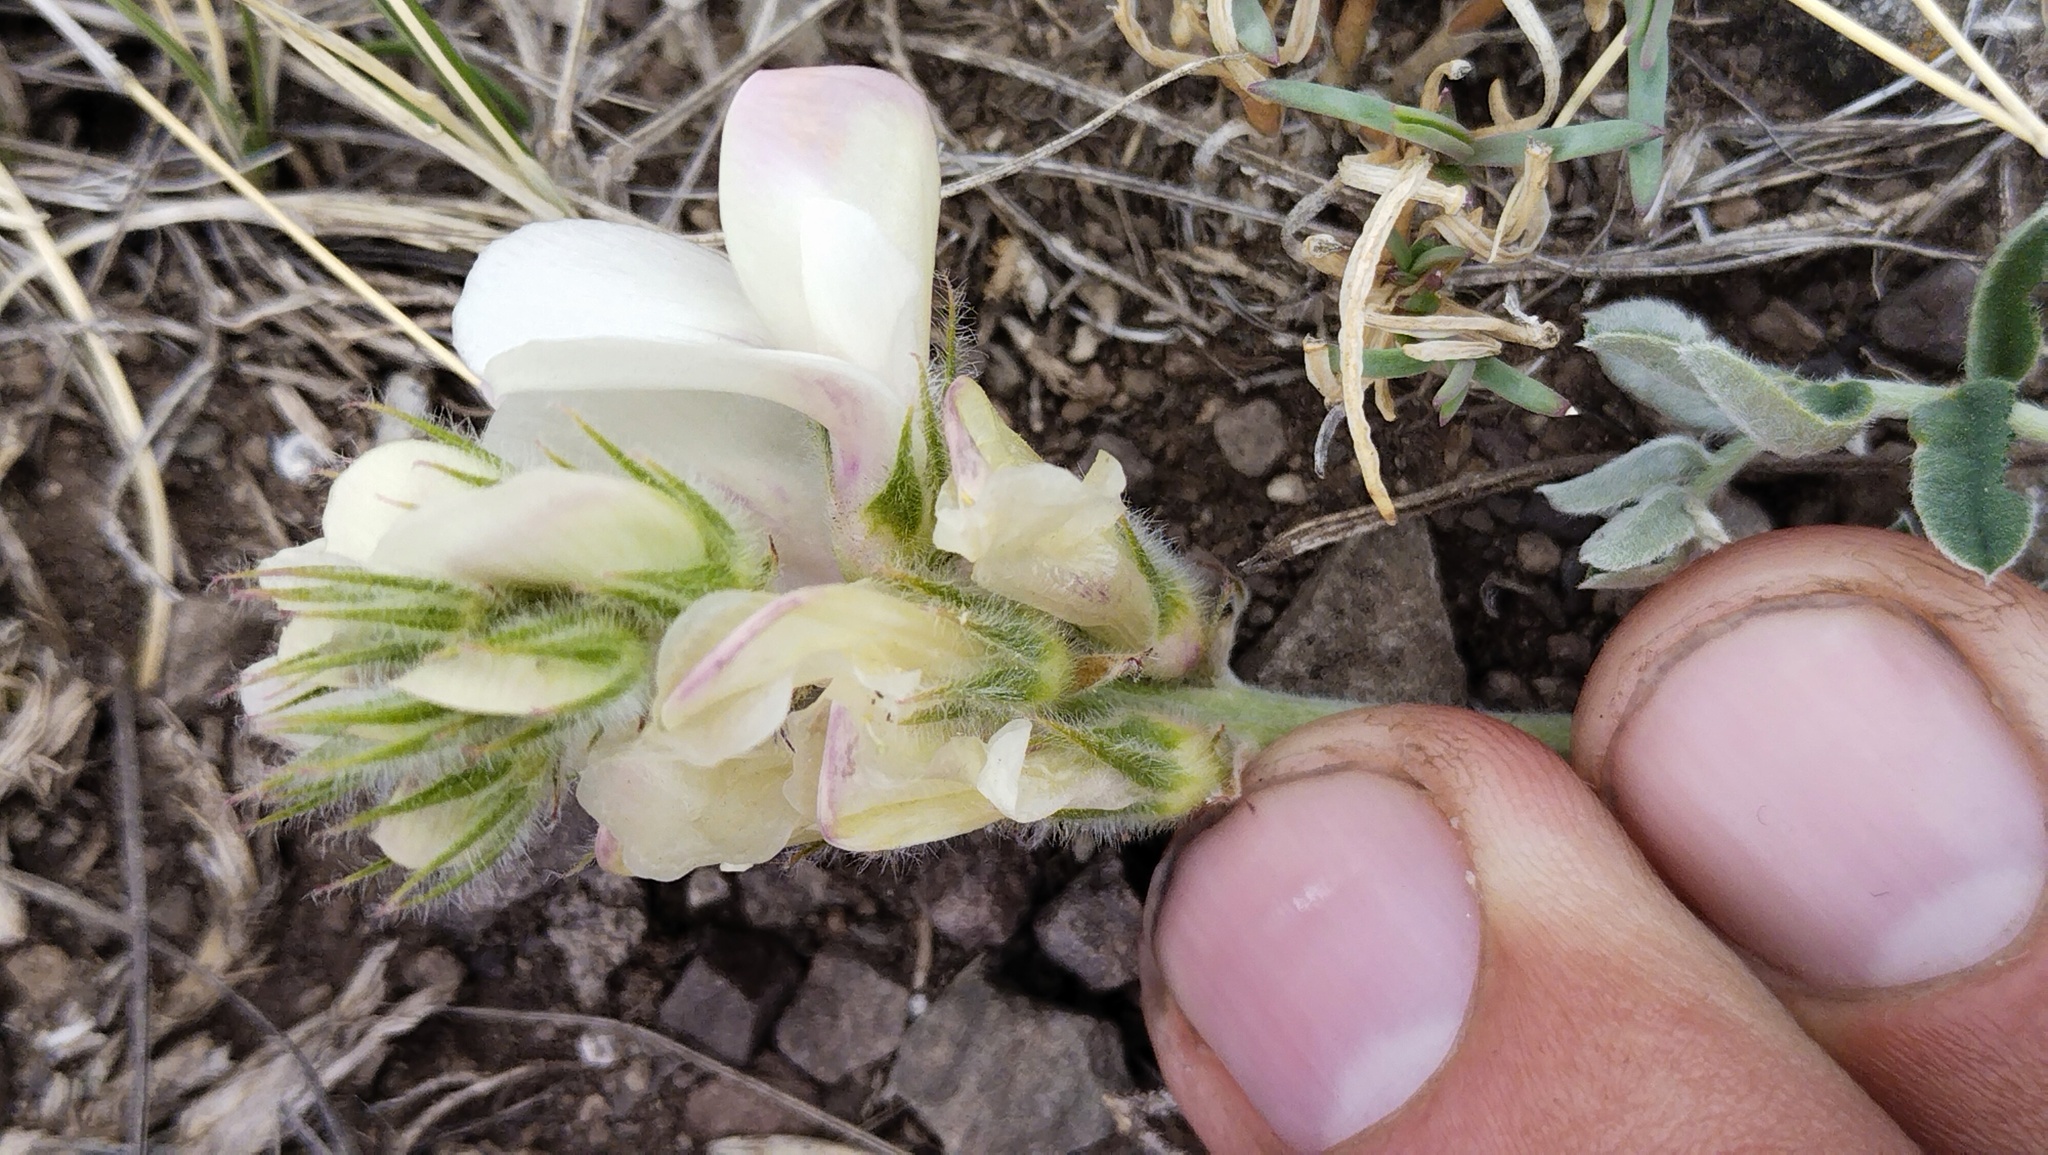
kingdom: Plantae
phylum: Tracheophyta
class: Magnoliopsida
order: Fabales
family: Fabaceae
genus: Hedysarum
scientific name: Hedysarum turczaninovii
